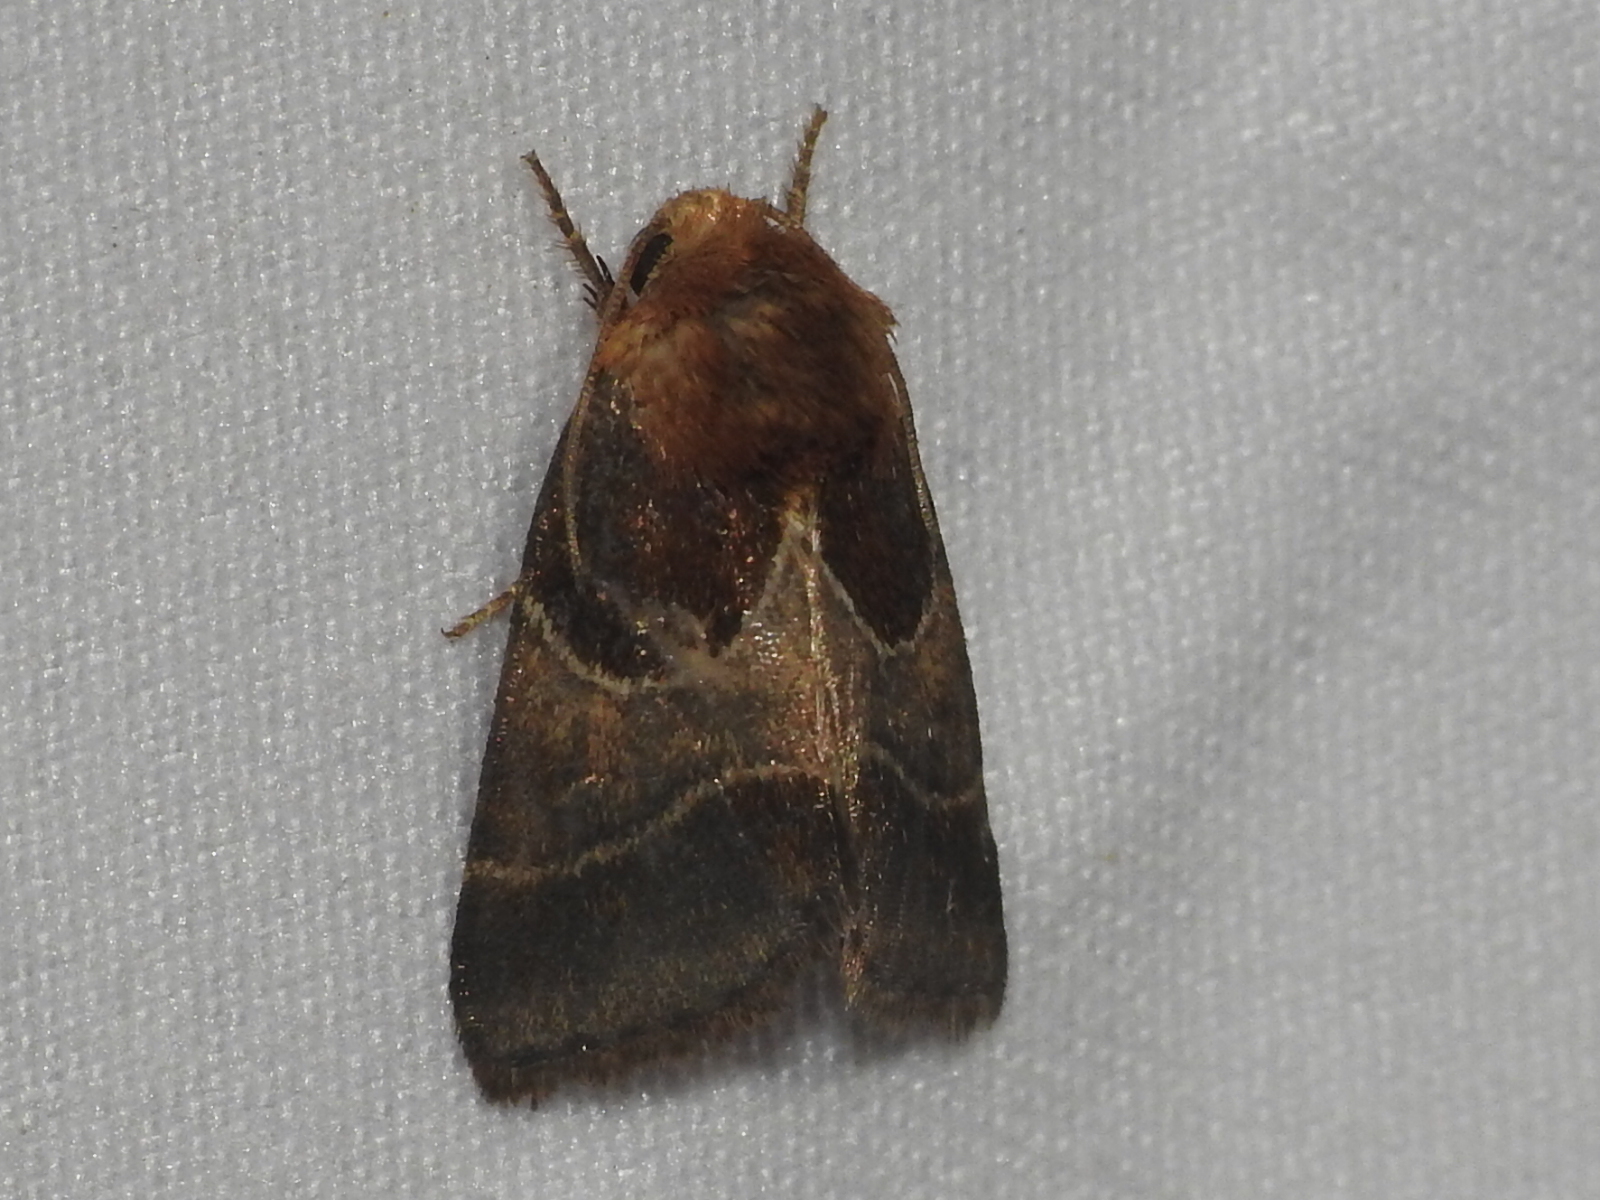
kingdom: Animalia
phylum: Arthropoda
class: Insecta
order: Lepidoptera
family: Noctuidae
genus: Schinia
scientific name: Schinia arcigera
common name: Arcigera flower moth
